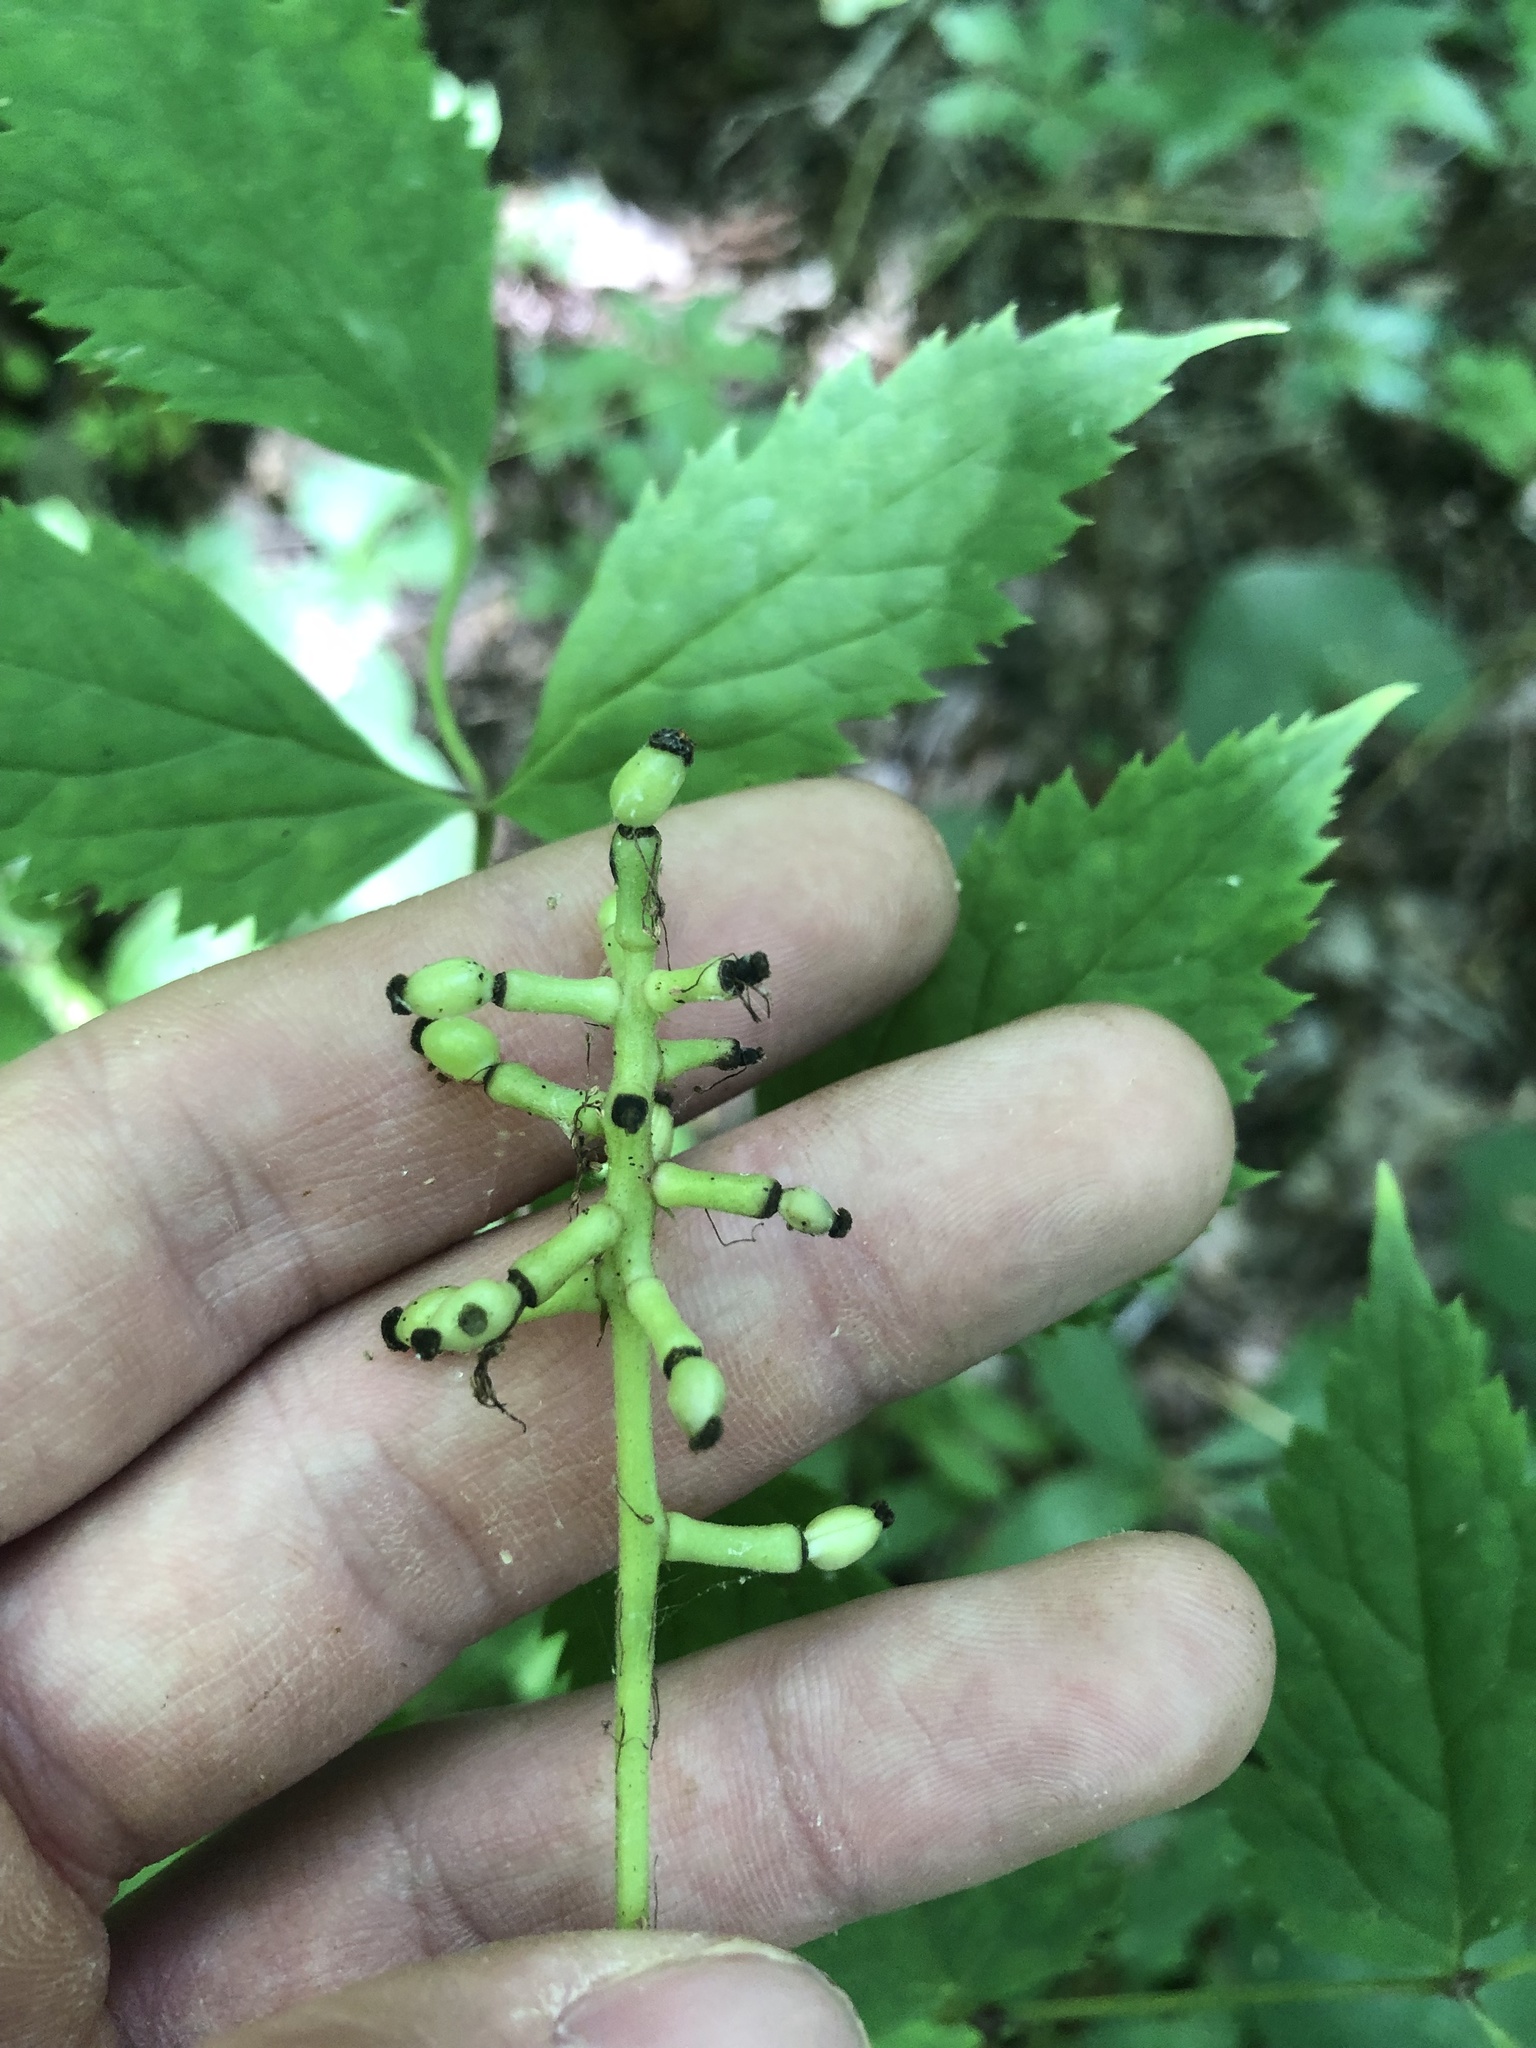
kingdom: Plantae
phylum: Tracheophyta
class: Magnoliopsida
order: Ranunculales
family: Ranunculaceae
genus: Actaea
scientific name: Actaea pachypoda
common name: Doll's-eyes
